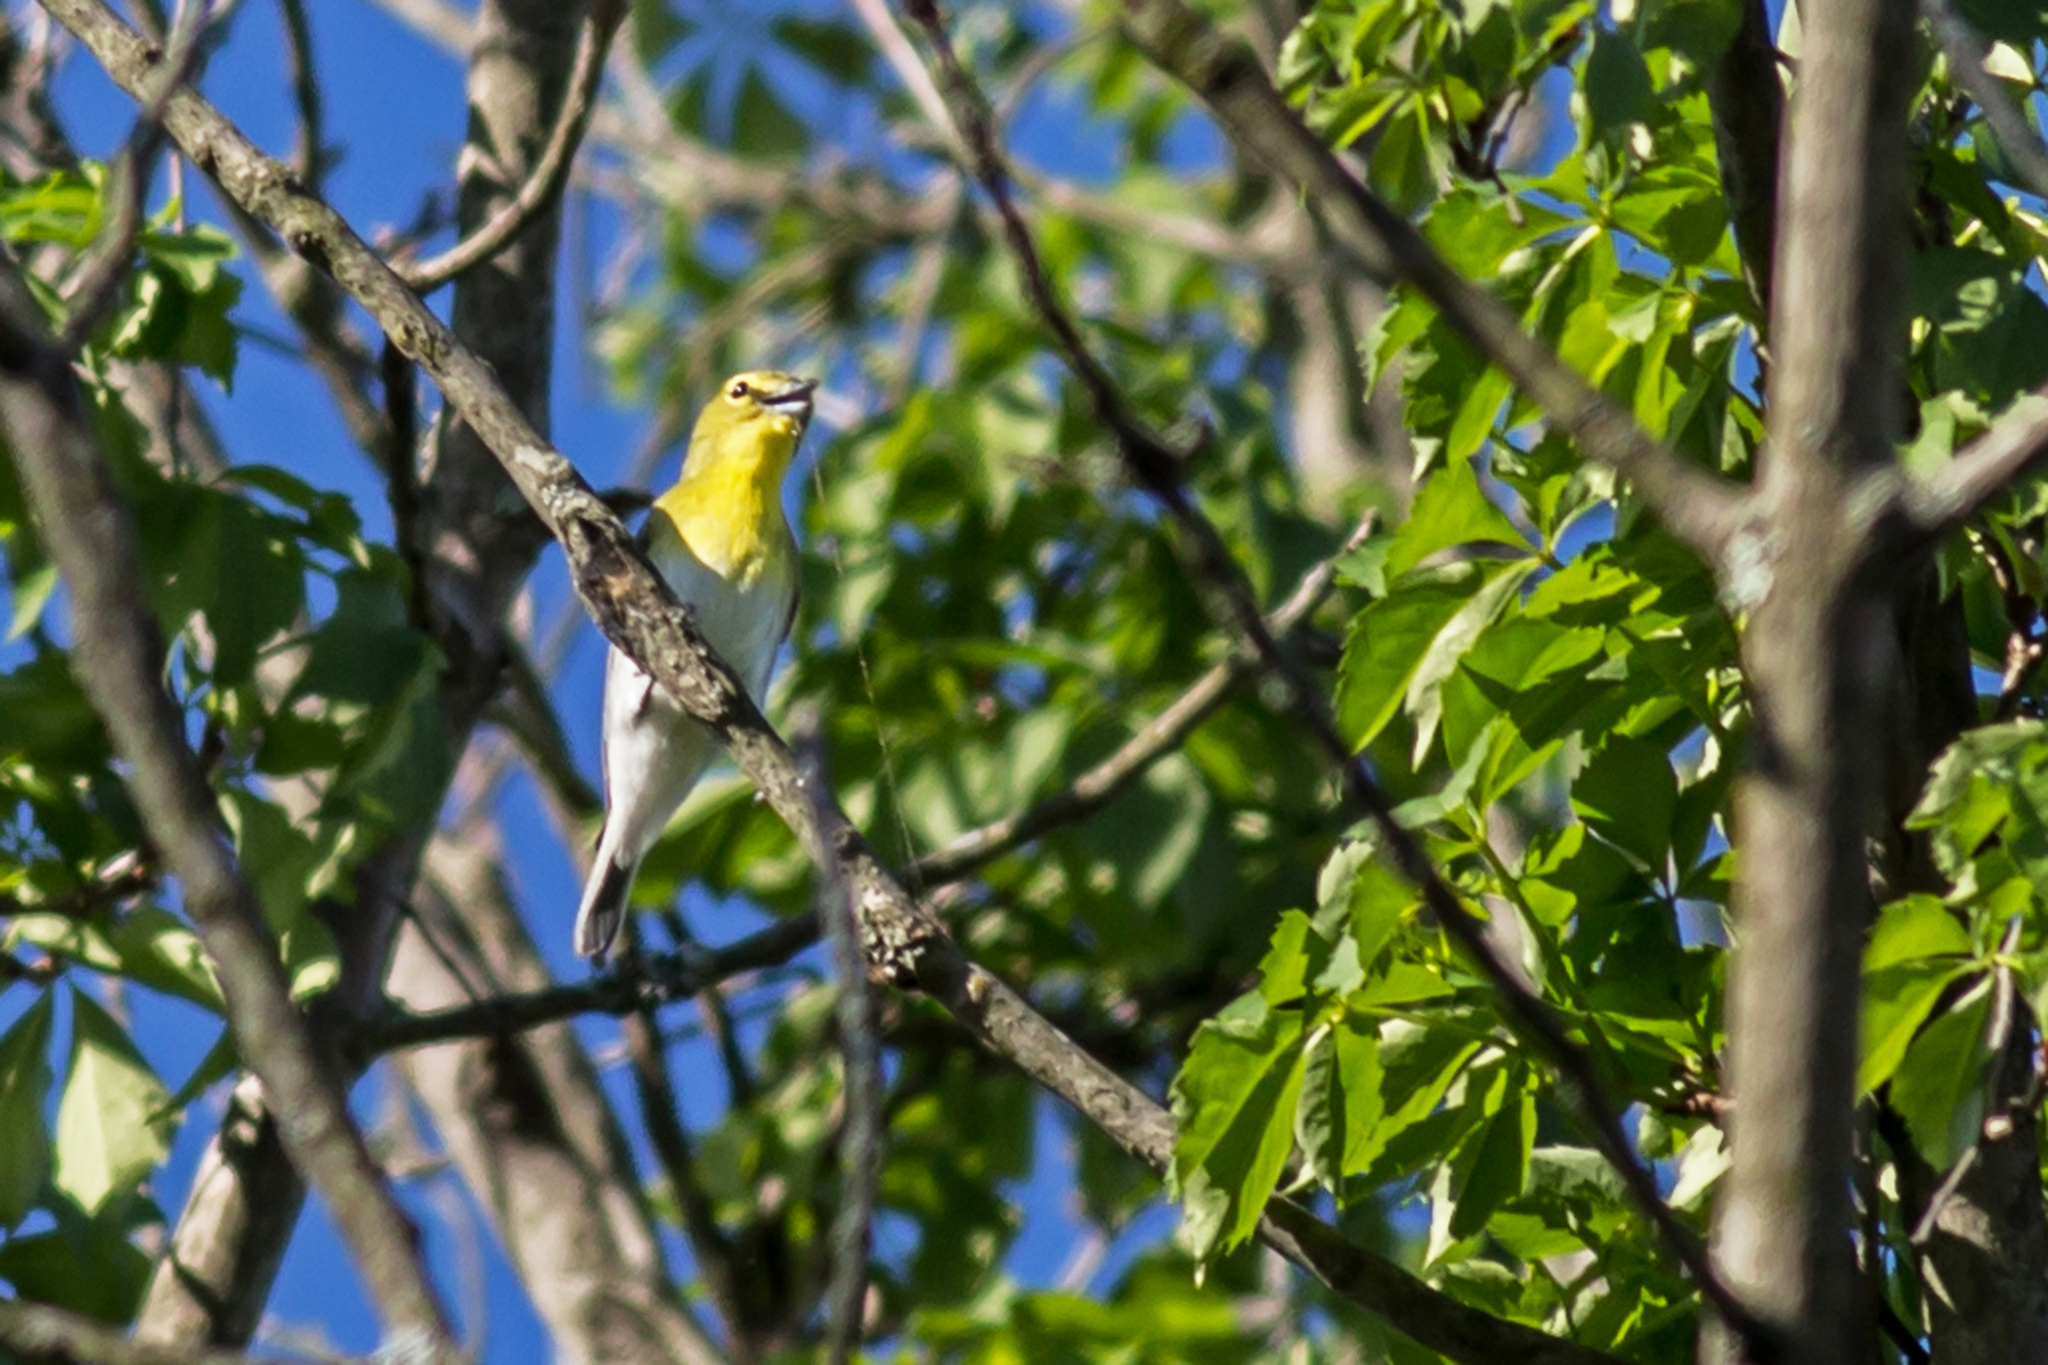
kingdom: Animalia
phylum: Chordata
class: Aves
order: Passeriformes
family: Vireonidae
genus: Vireo
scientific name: Vireo flavifrons
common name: Yellow-throated vireo
